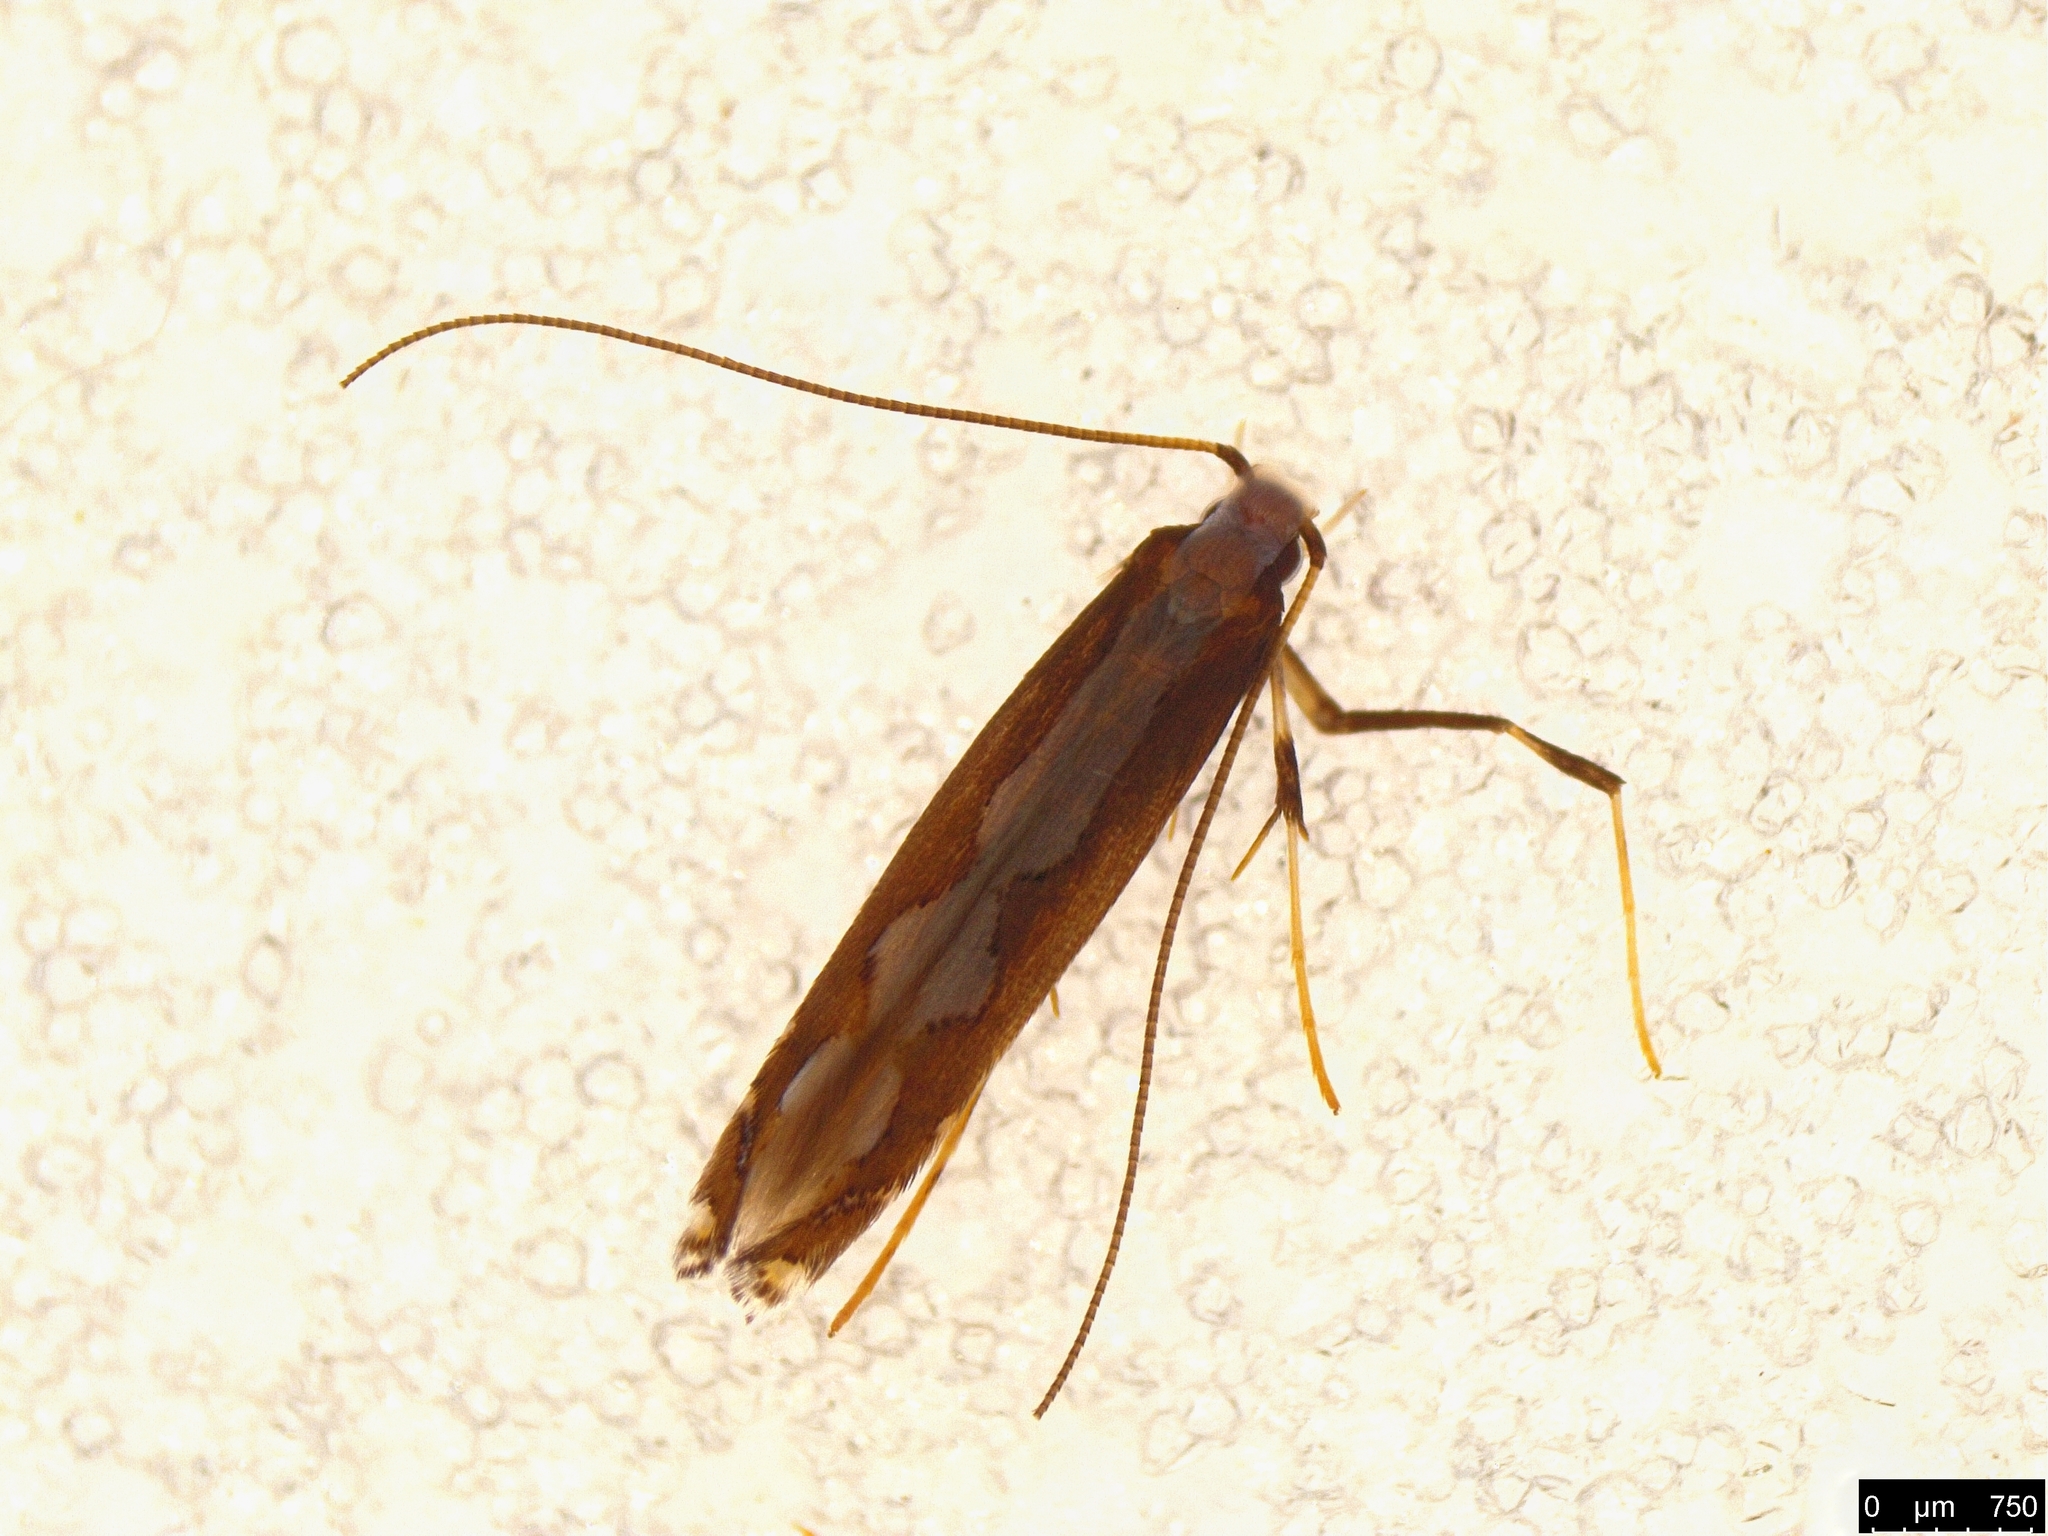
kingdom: Animalia
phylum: Arthropoda
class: Insecta
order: Lepidoptera
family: Gracillariidae
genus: Dialectica
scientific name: Dialectica scalariella
